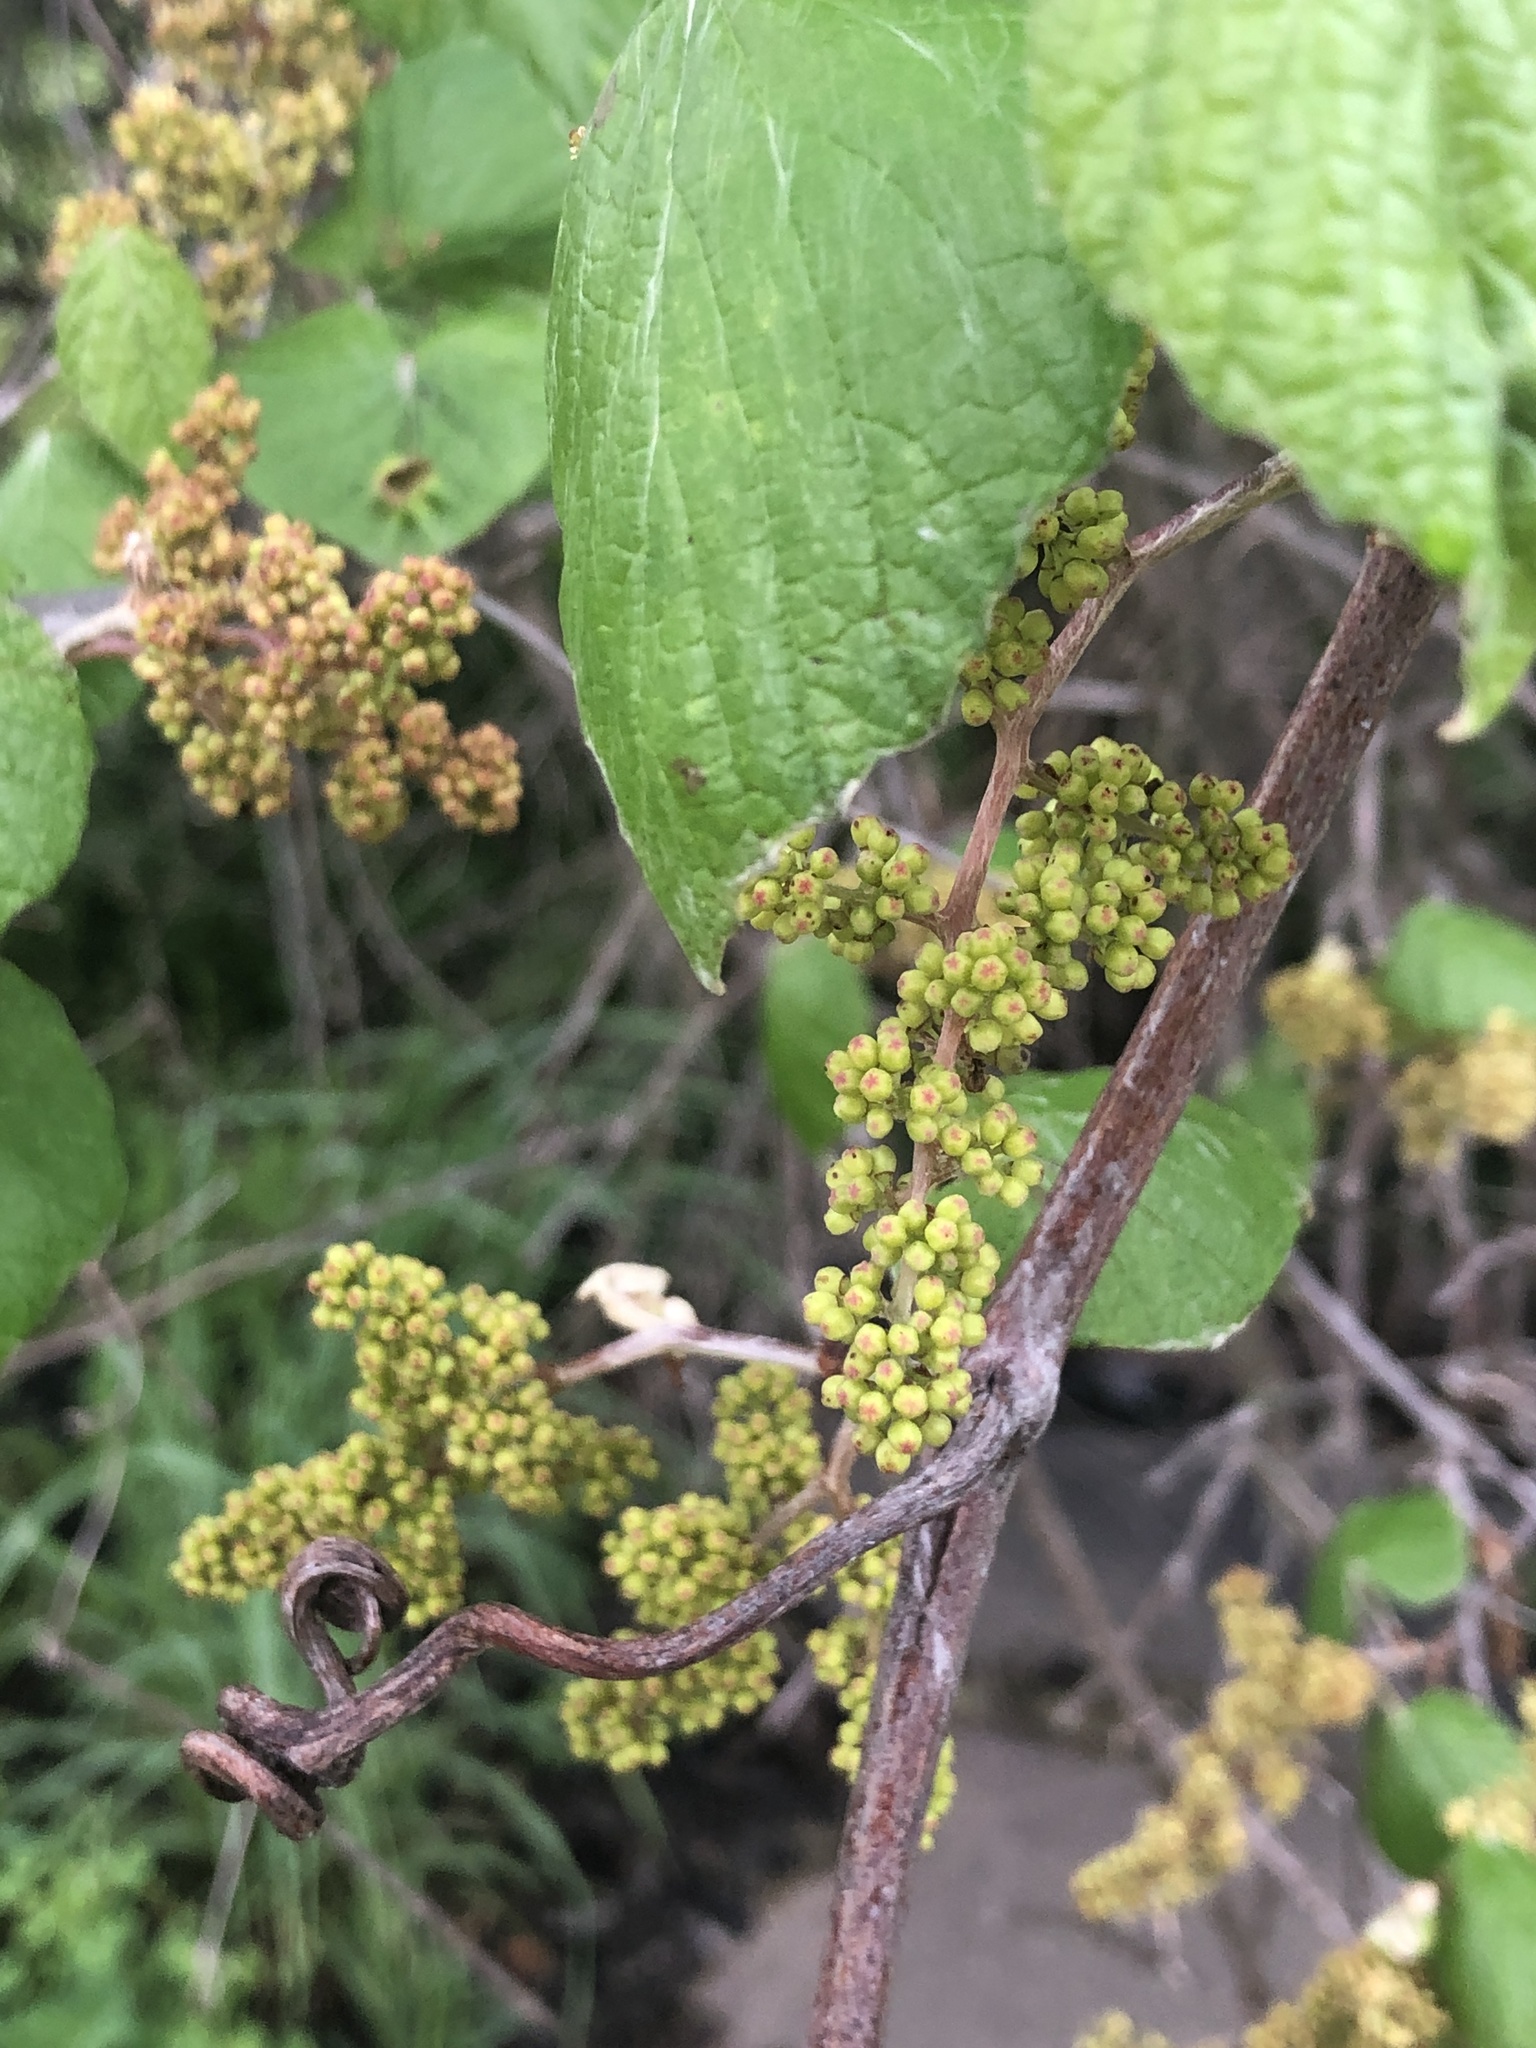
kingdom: Plantae
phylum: Tracheophyta
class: Magnoliopsida
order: Vitales
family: Vitaceae
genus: Vitis
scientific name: Vitis mustangensis
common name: Mustang grape
